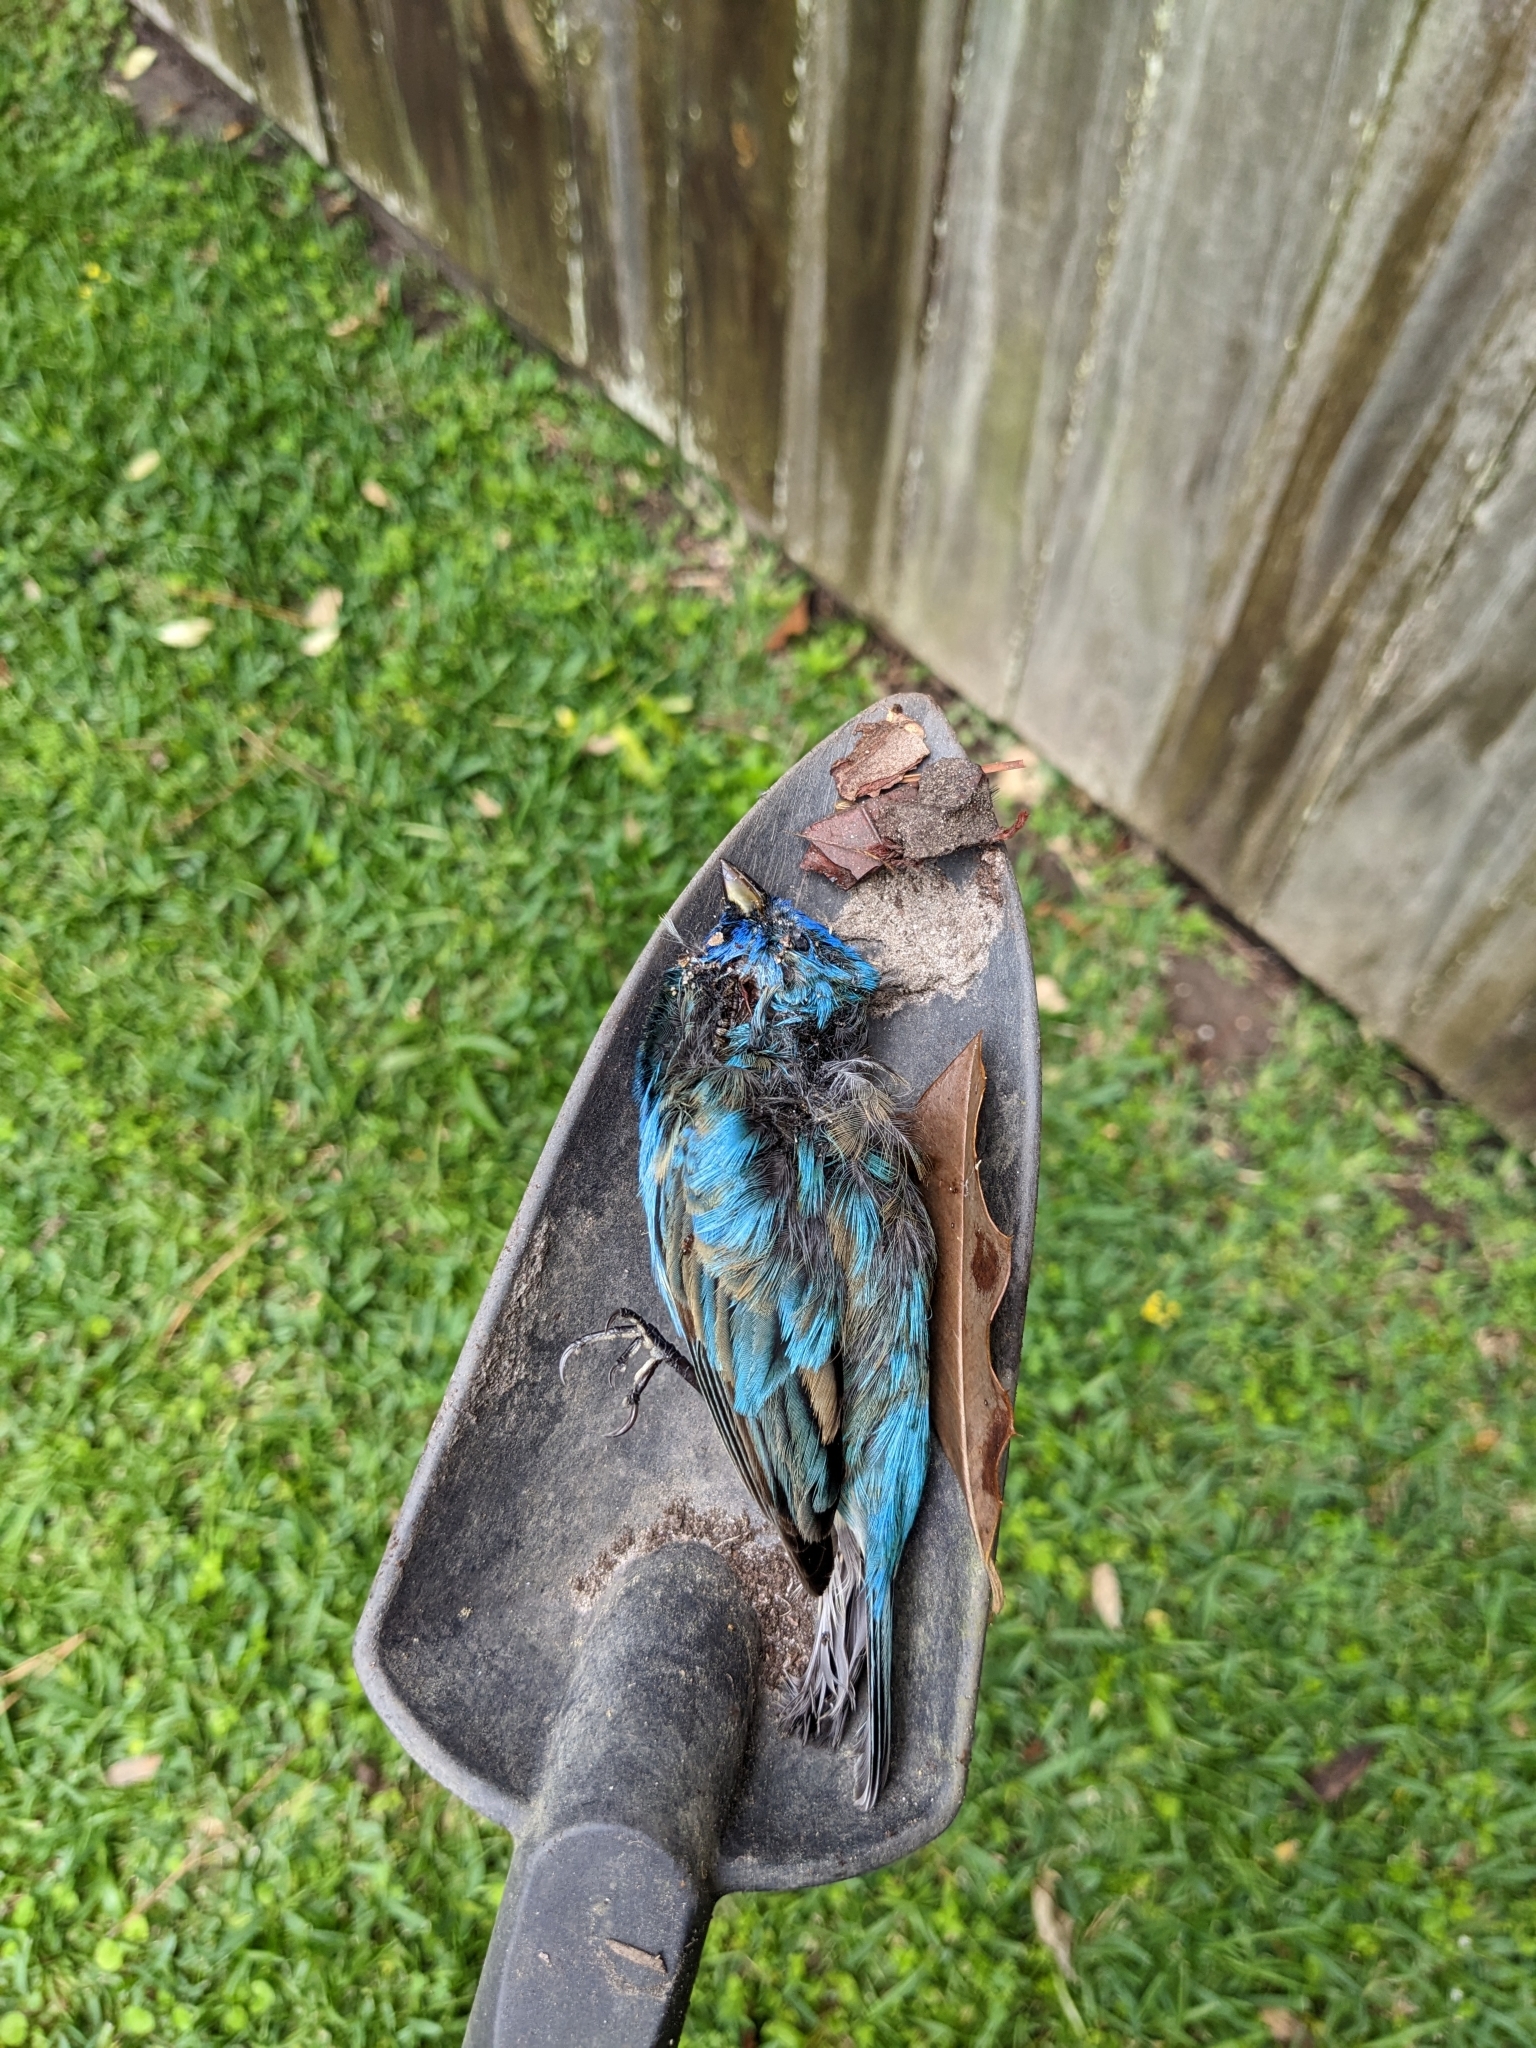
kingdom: Animalia
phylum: Chordata
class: Aves
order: Passeriformes
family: Cardinalidae
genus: Passerina
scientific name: Passerina cyanea
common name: Indigo bunting
